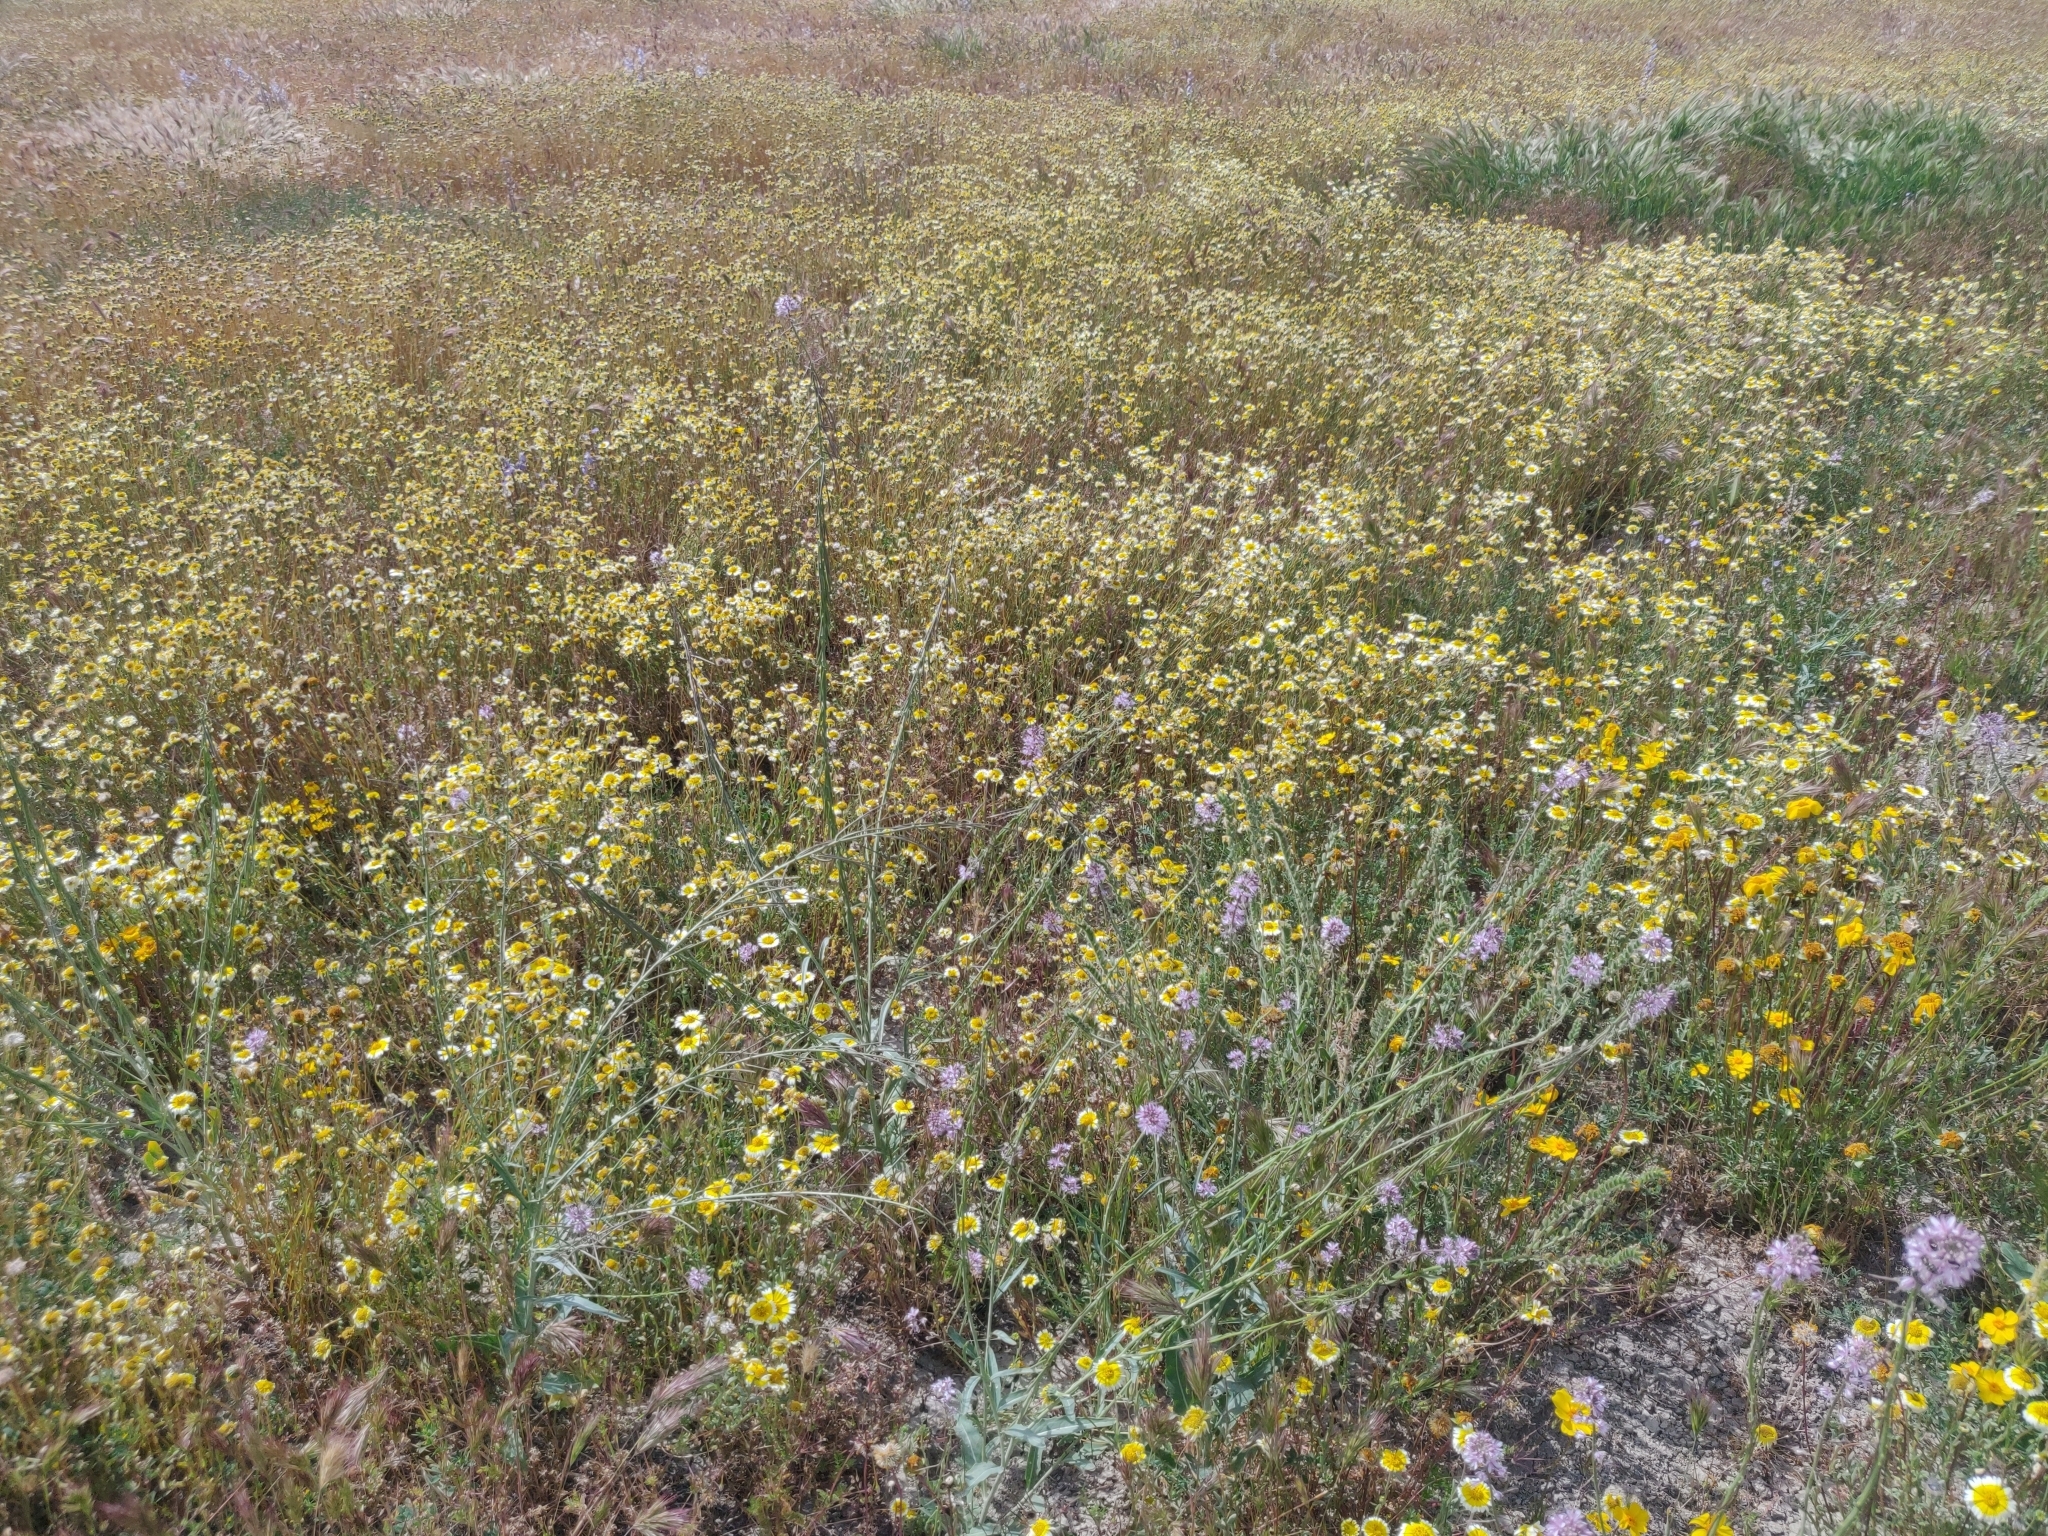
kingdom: Plantae
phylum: Tracheophyta
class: Magnoliopsida
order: Brassicales
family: Brassicaceae
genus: Streptanthus
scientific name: Streptanthus anceps
